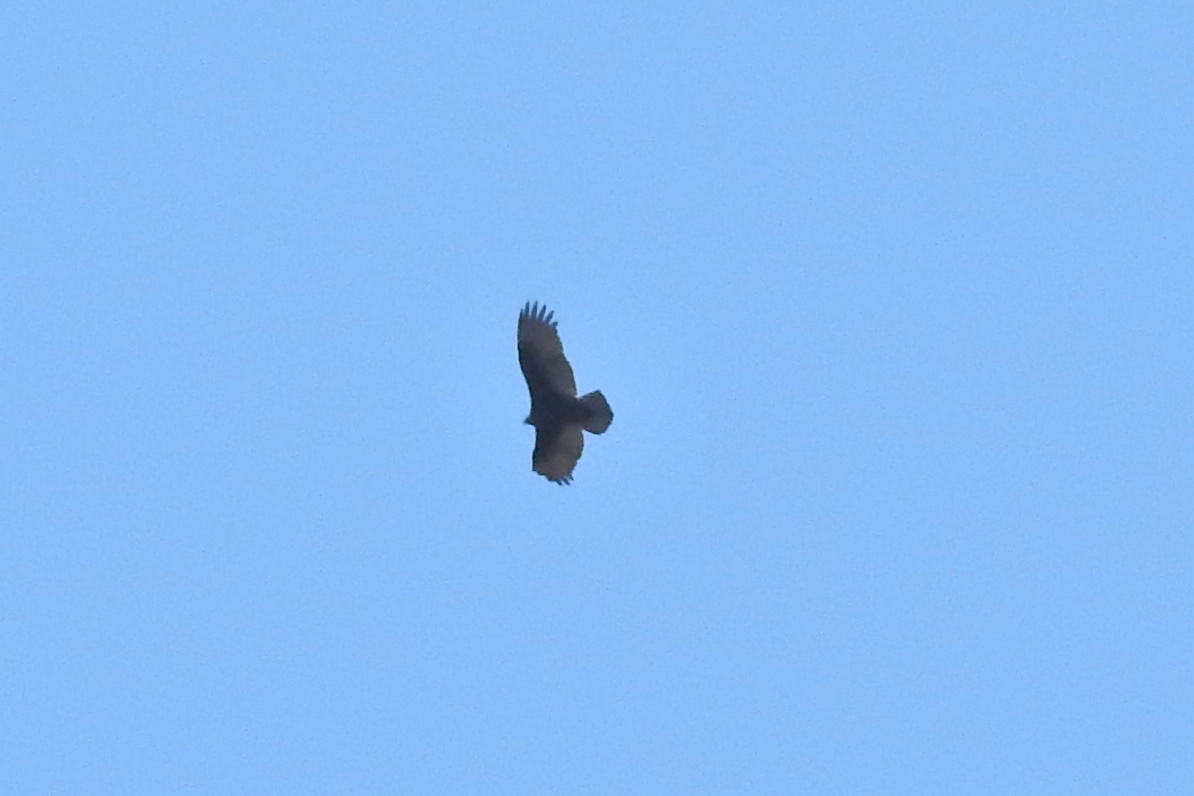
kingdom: Animalia
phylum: Chordata
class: Aves
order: Accipitriformes
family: Cathartidae
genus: Cathartes
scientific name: Cathartes aura
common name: Turkey vulture
